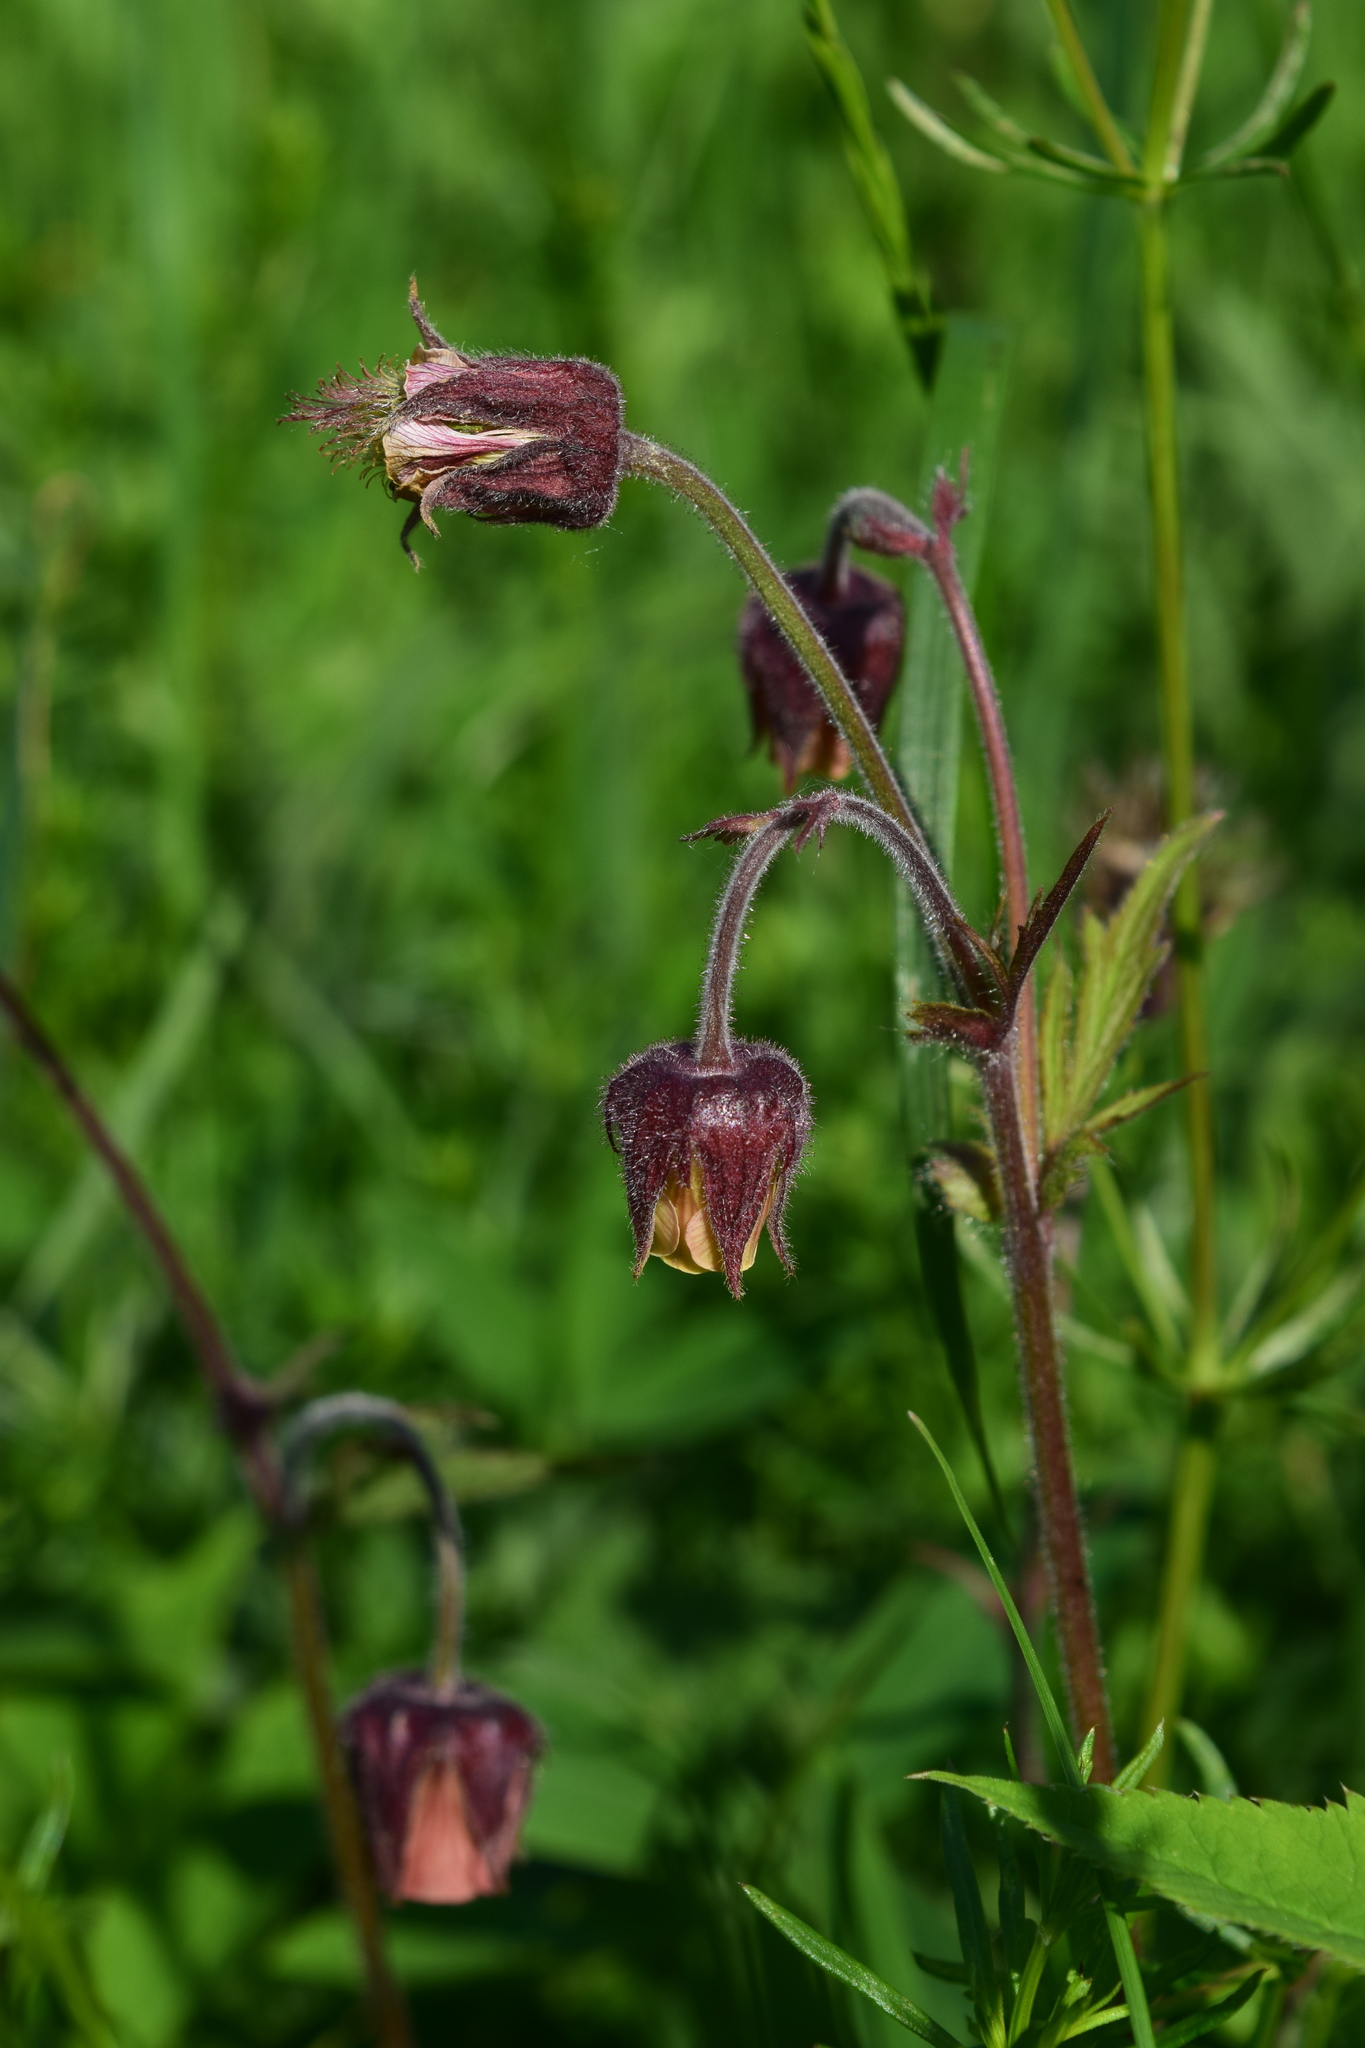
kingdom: Plantae
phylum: Tracheophyta
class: Magnoliopsida
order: Rosales
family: Rosaceae
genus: Geum
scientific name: Geum rivale
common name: Water avens
